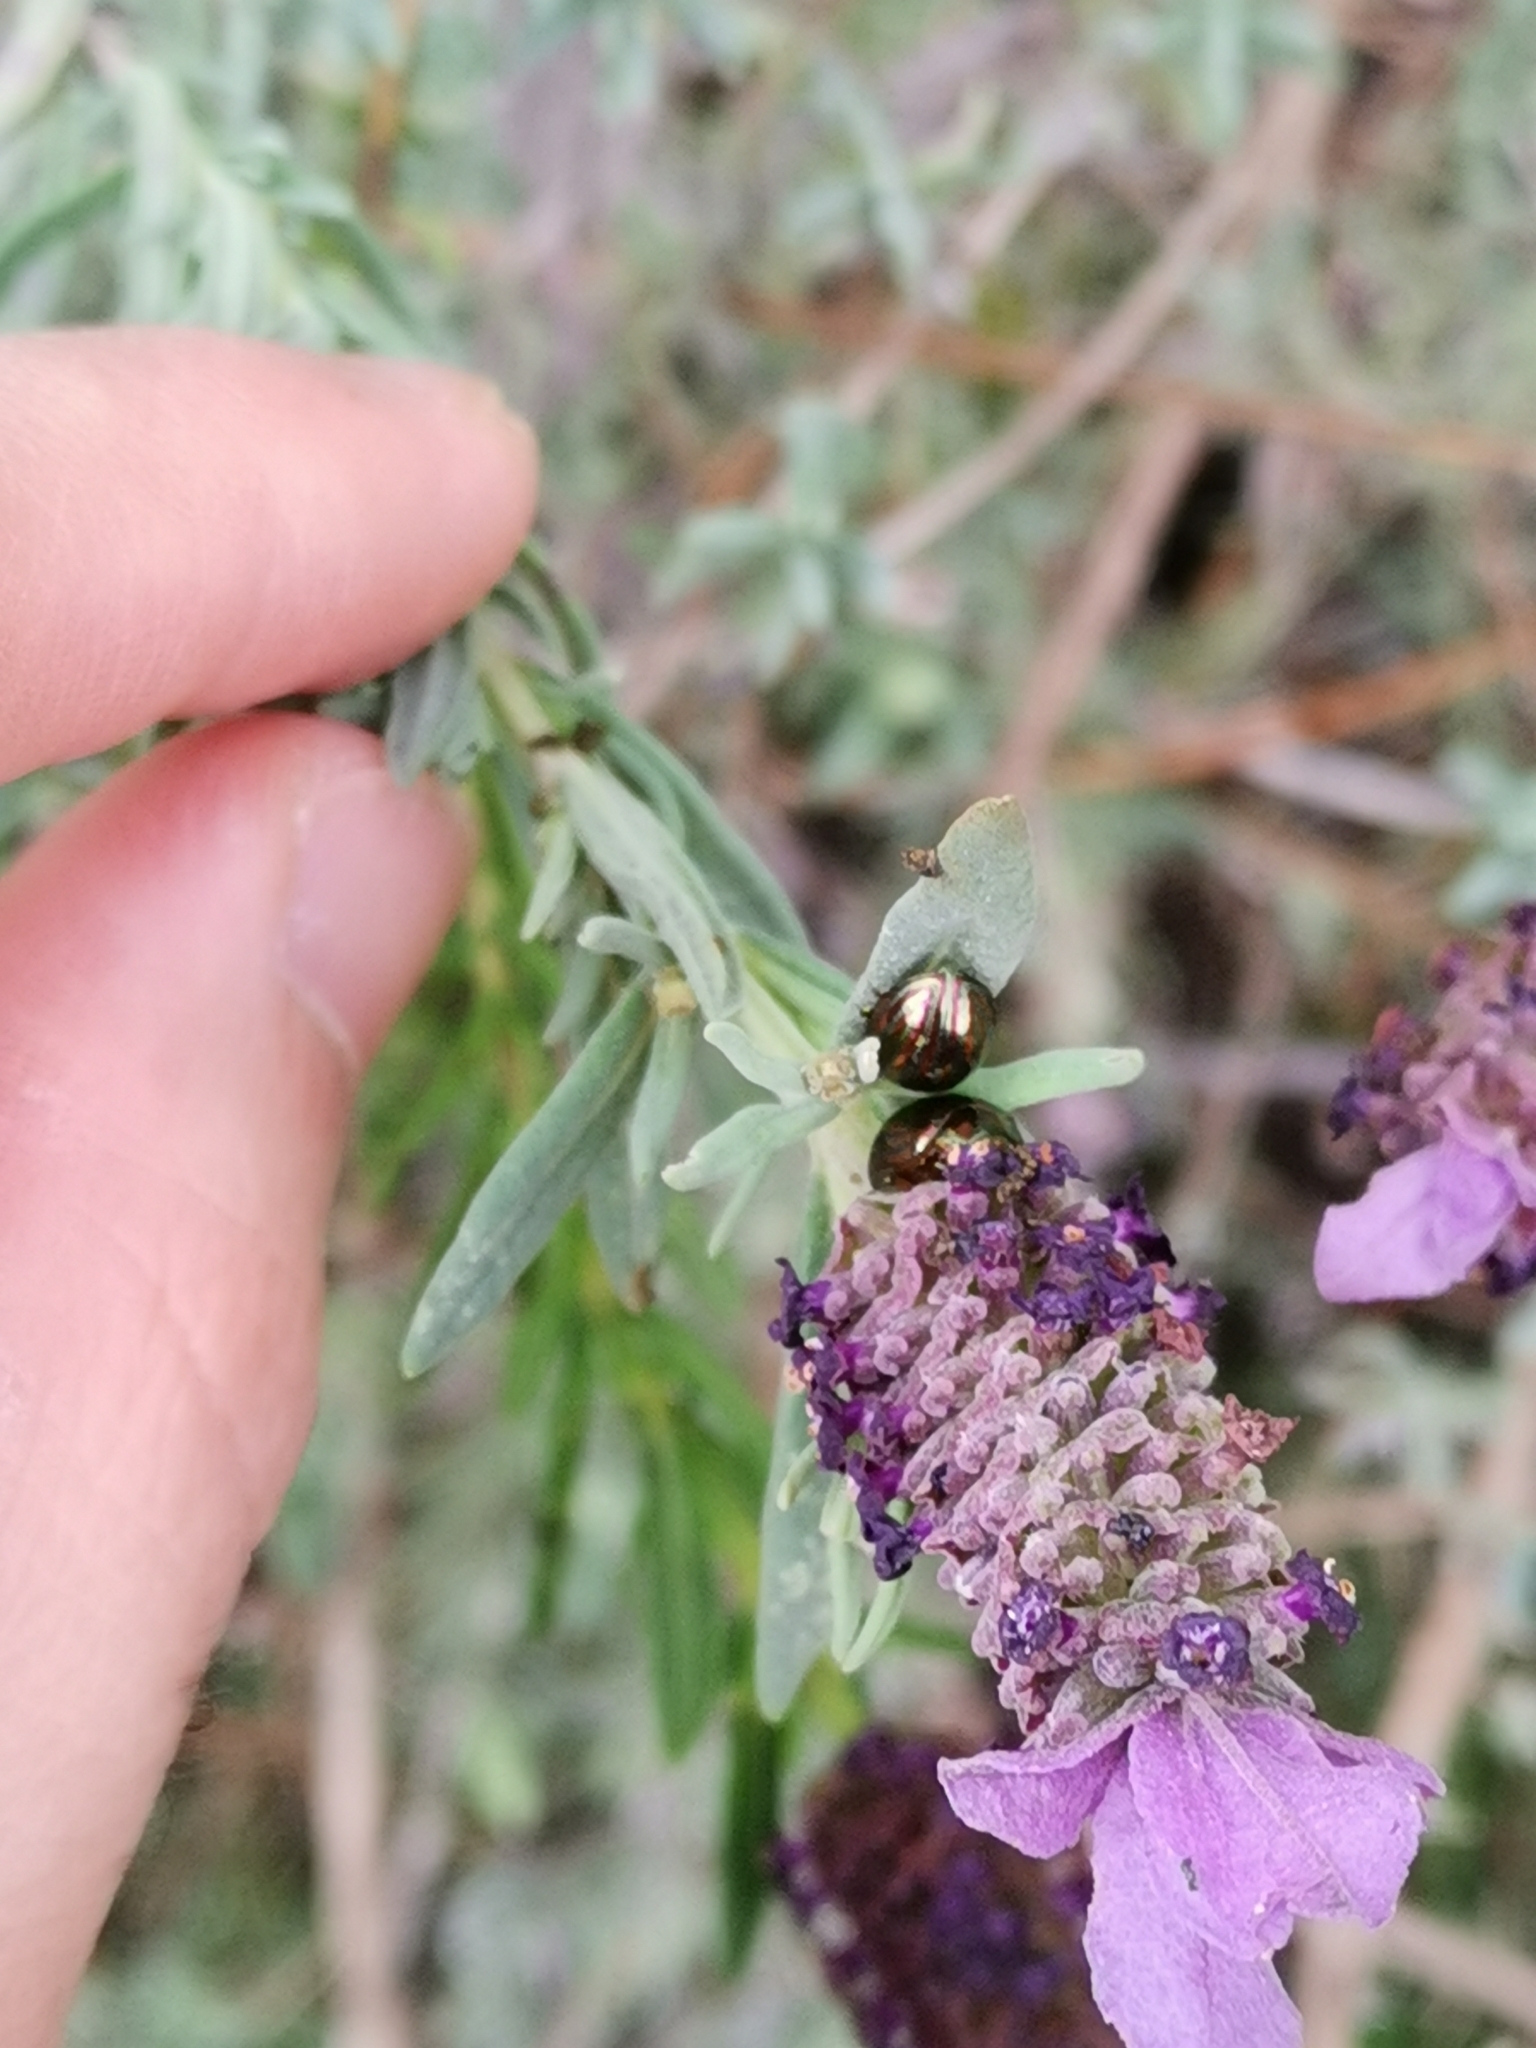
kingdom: Animalia
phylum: Arthropoda
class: Insecta
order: Coleoptera
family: Chrysomelidae
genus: Chrysolina
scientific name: Chrysolina americana
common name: Rosemary beetle
